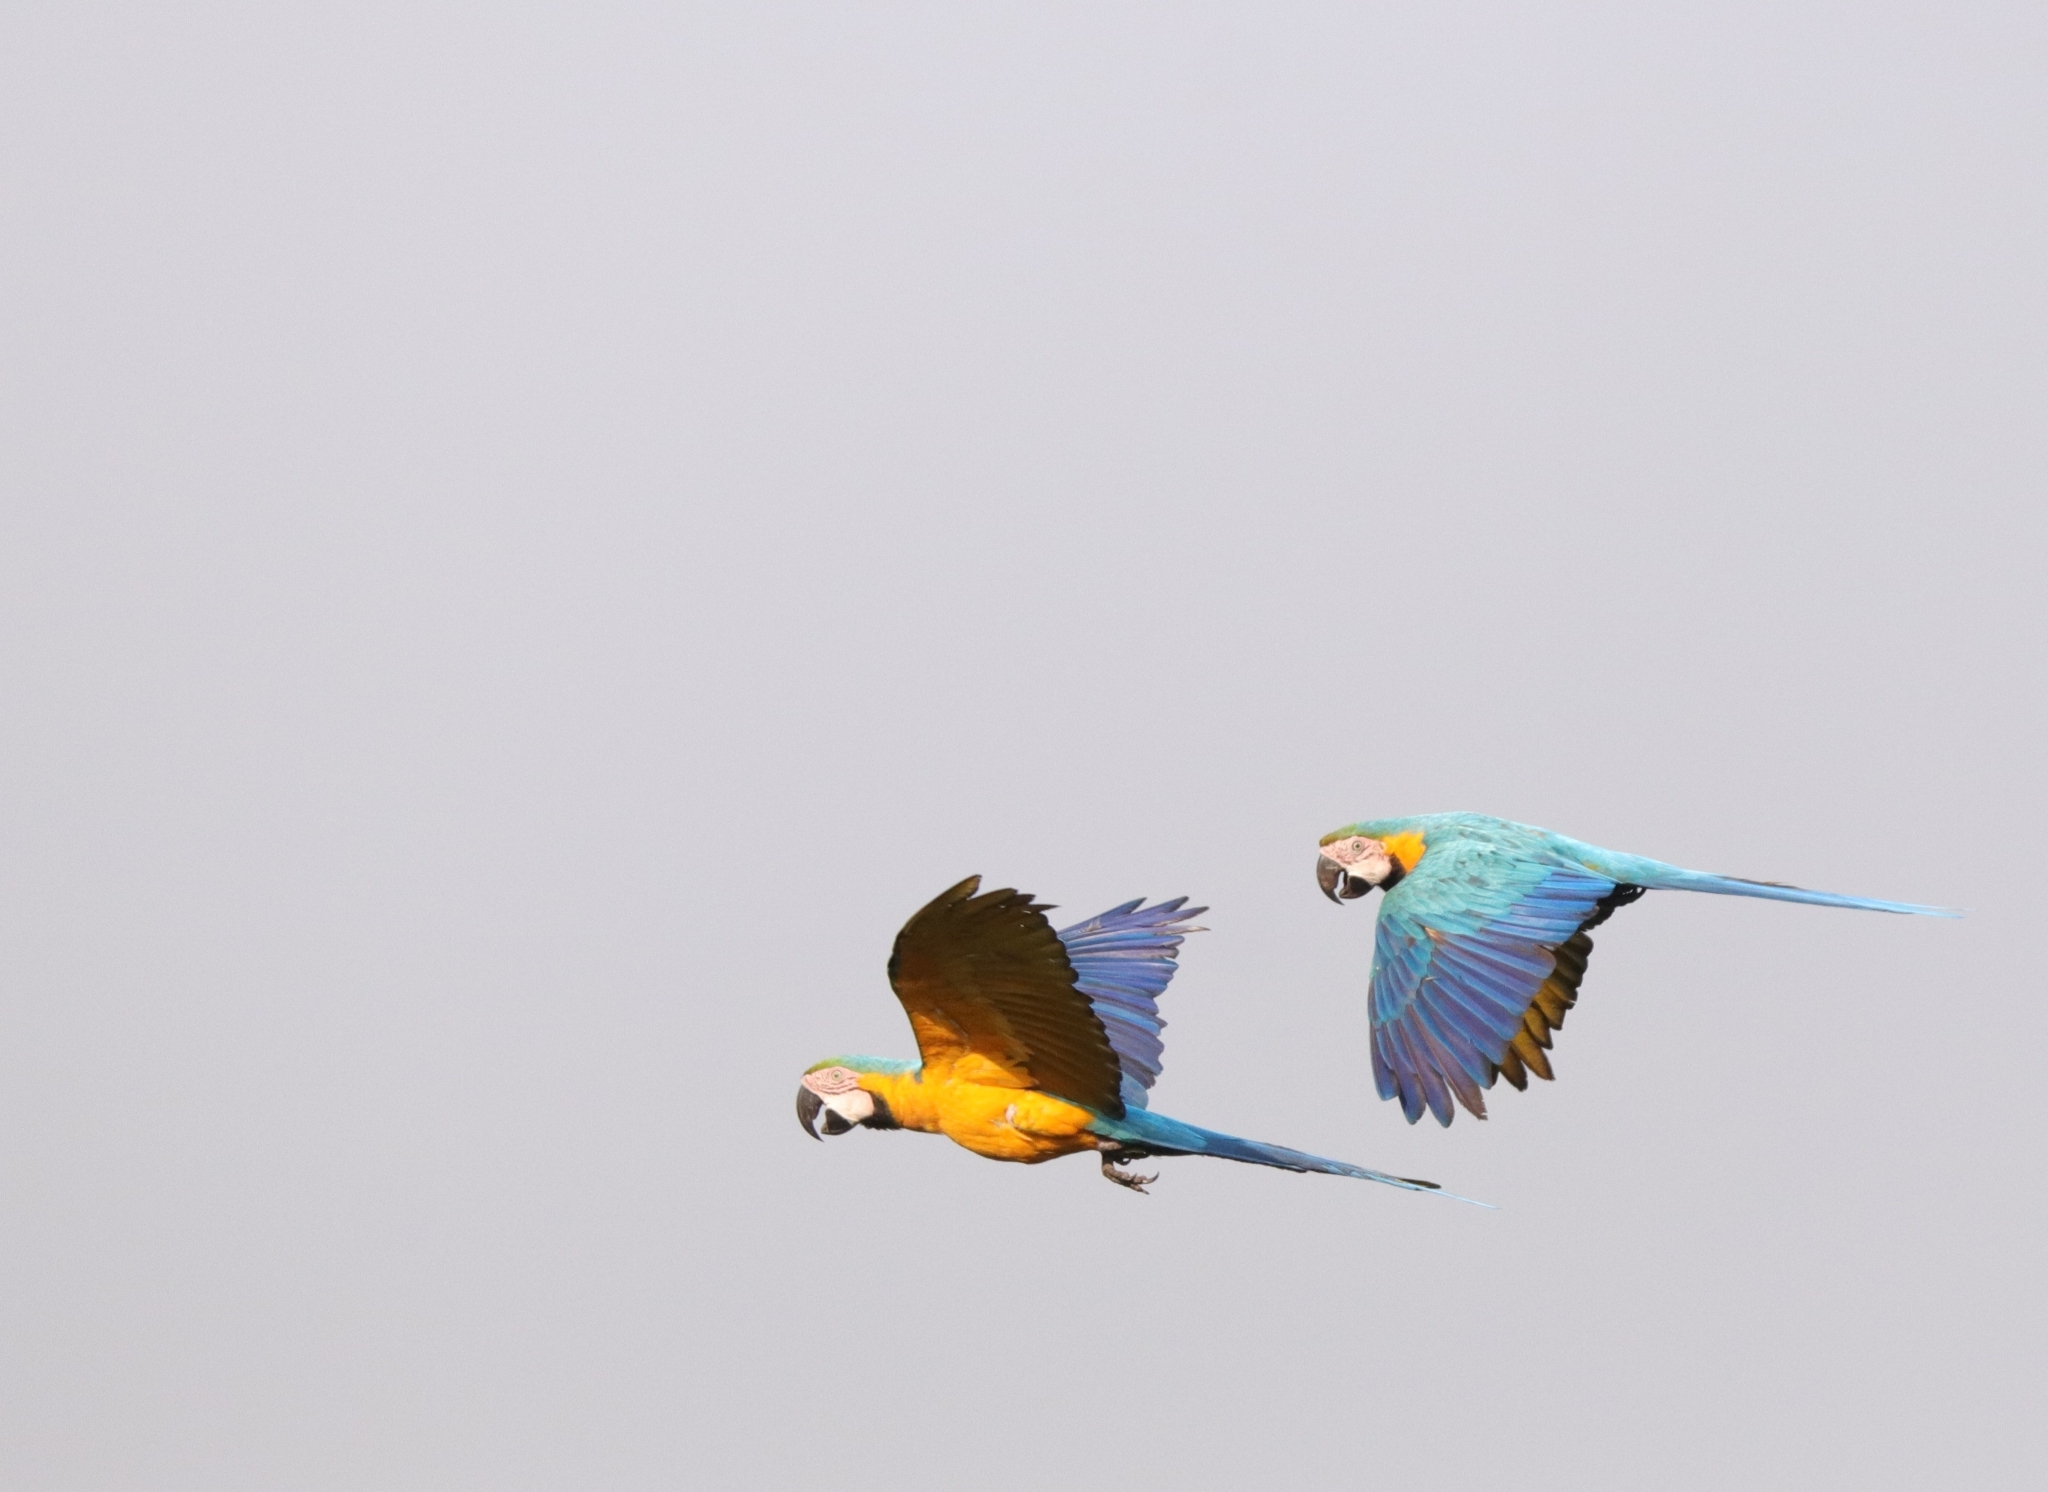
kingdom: Animalia
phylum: Chordata
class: Aves
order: Psittaciformes
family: Psittacidae
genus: Ara
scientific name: Ara ararauna
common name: Blue-and-yellow macaw
